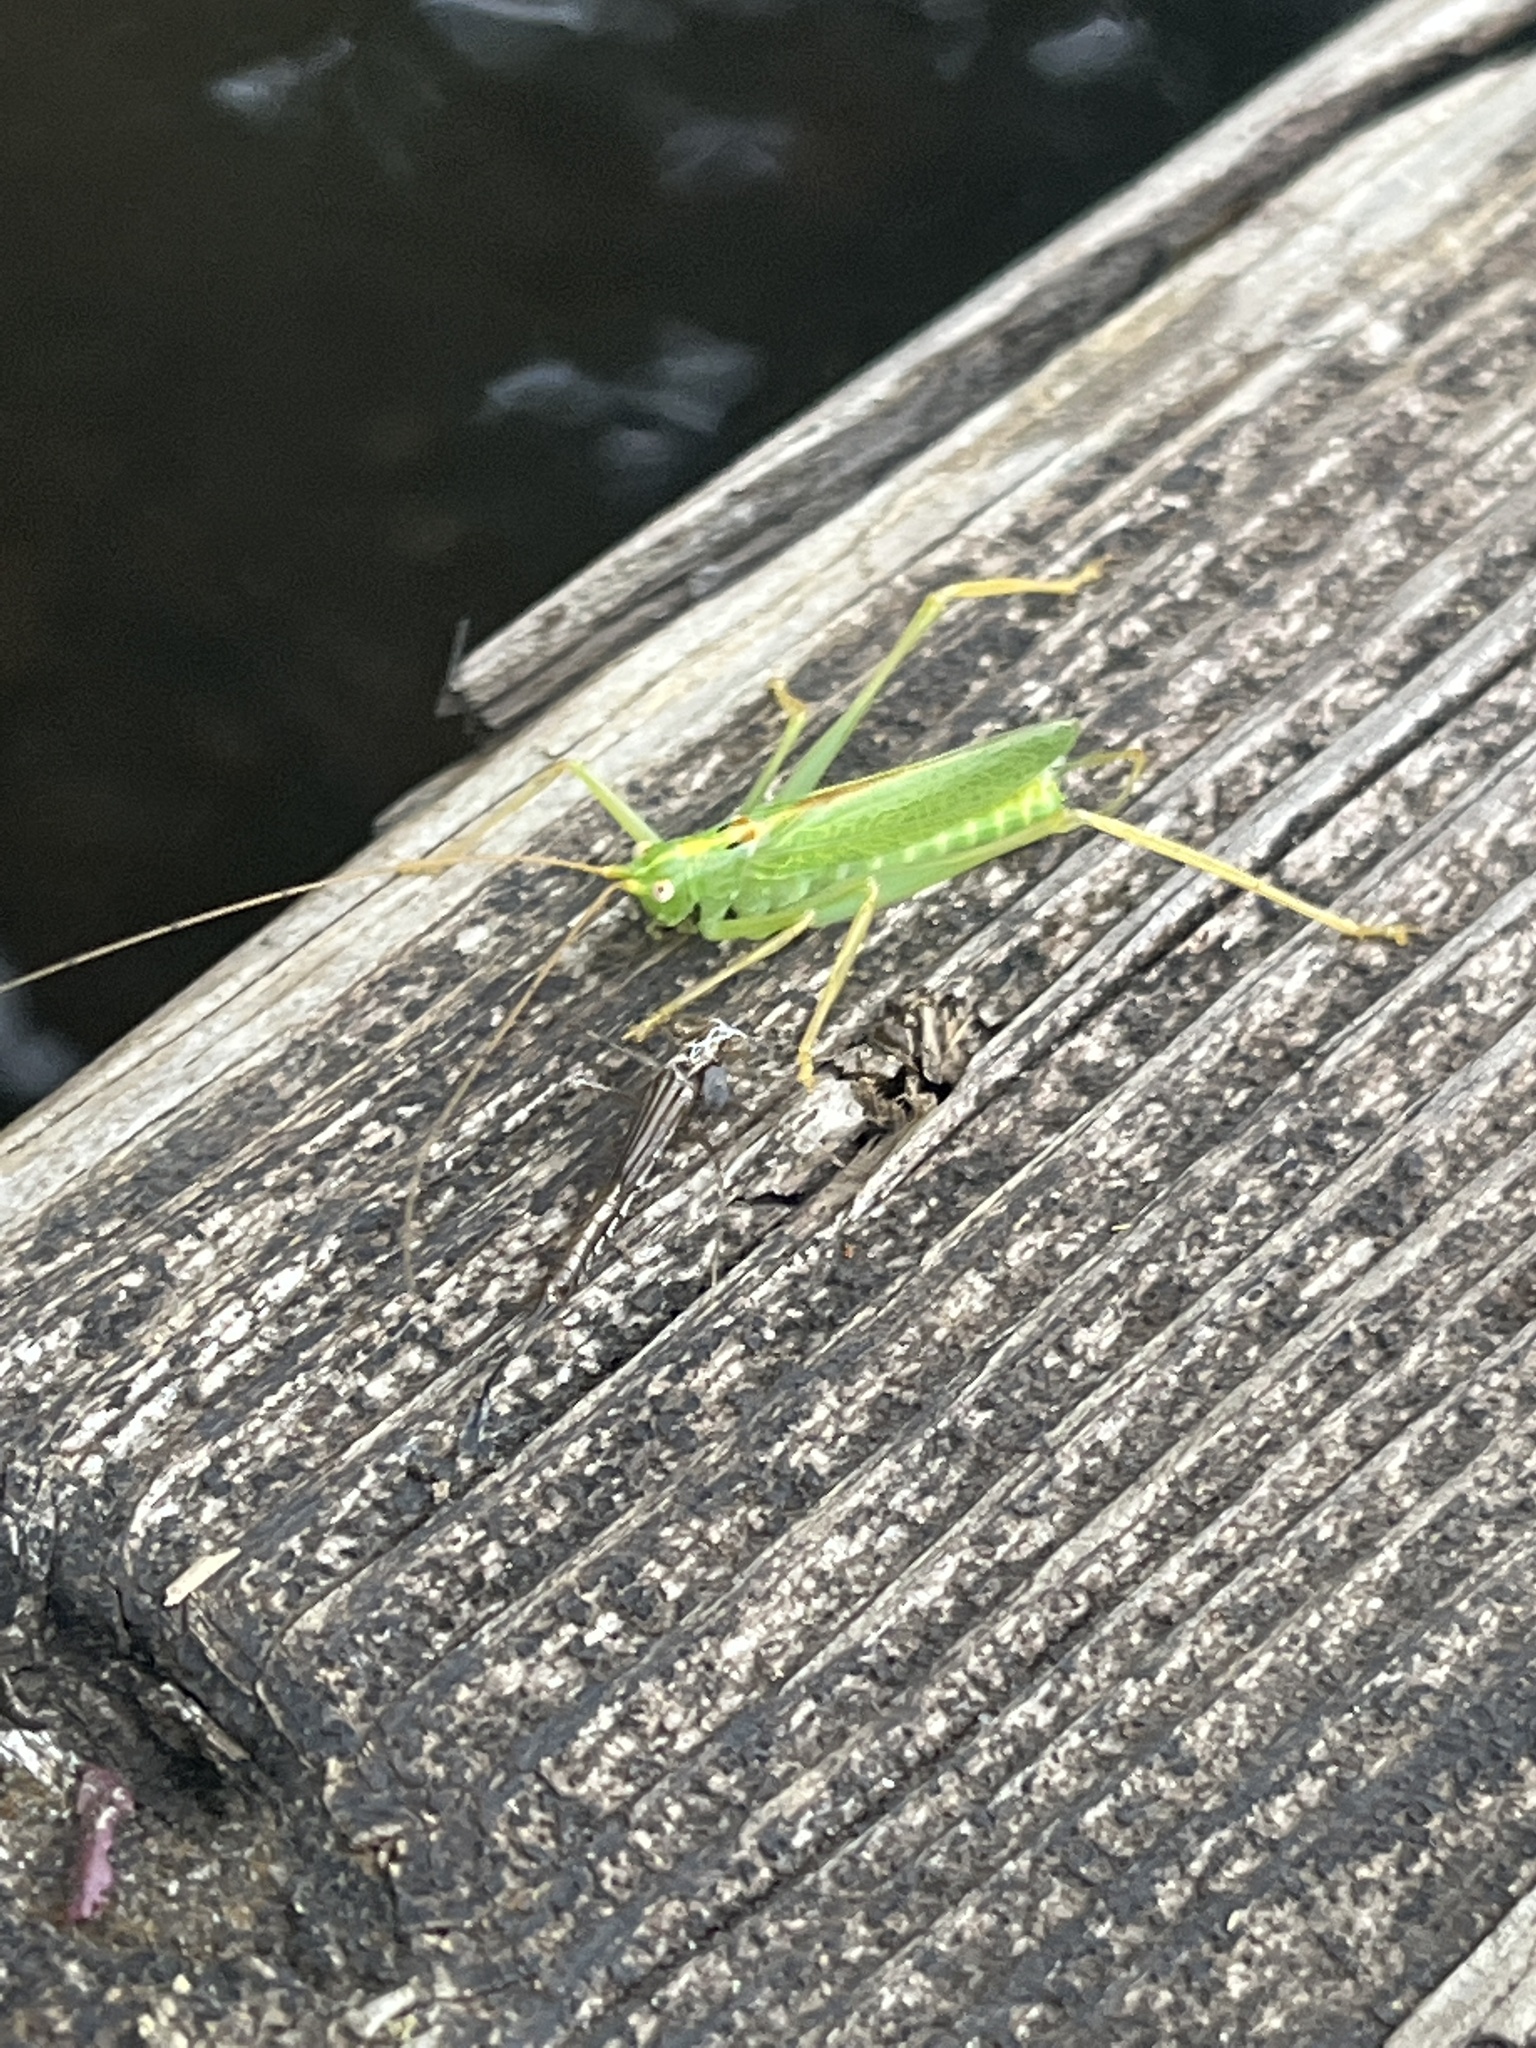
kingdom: Animalia
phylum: Arthropoda
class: Insecta
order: Orthoptera
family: Tettigoniidae
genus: Meconema
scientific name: Meconema thalassinum
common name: Oak bush-cricket
